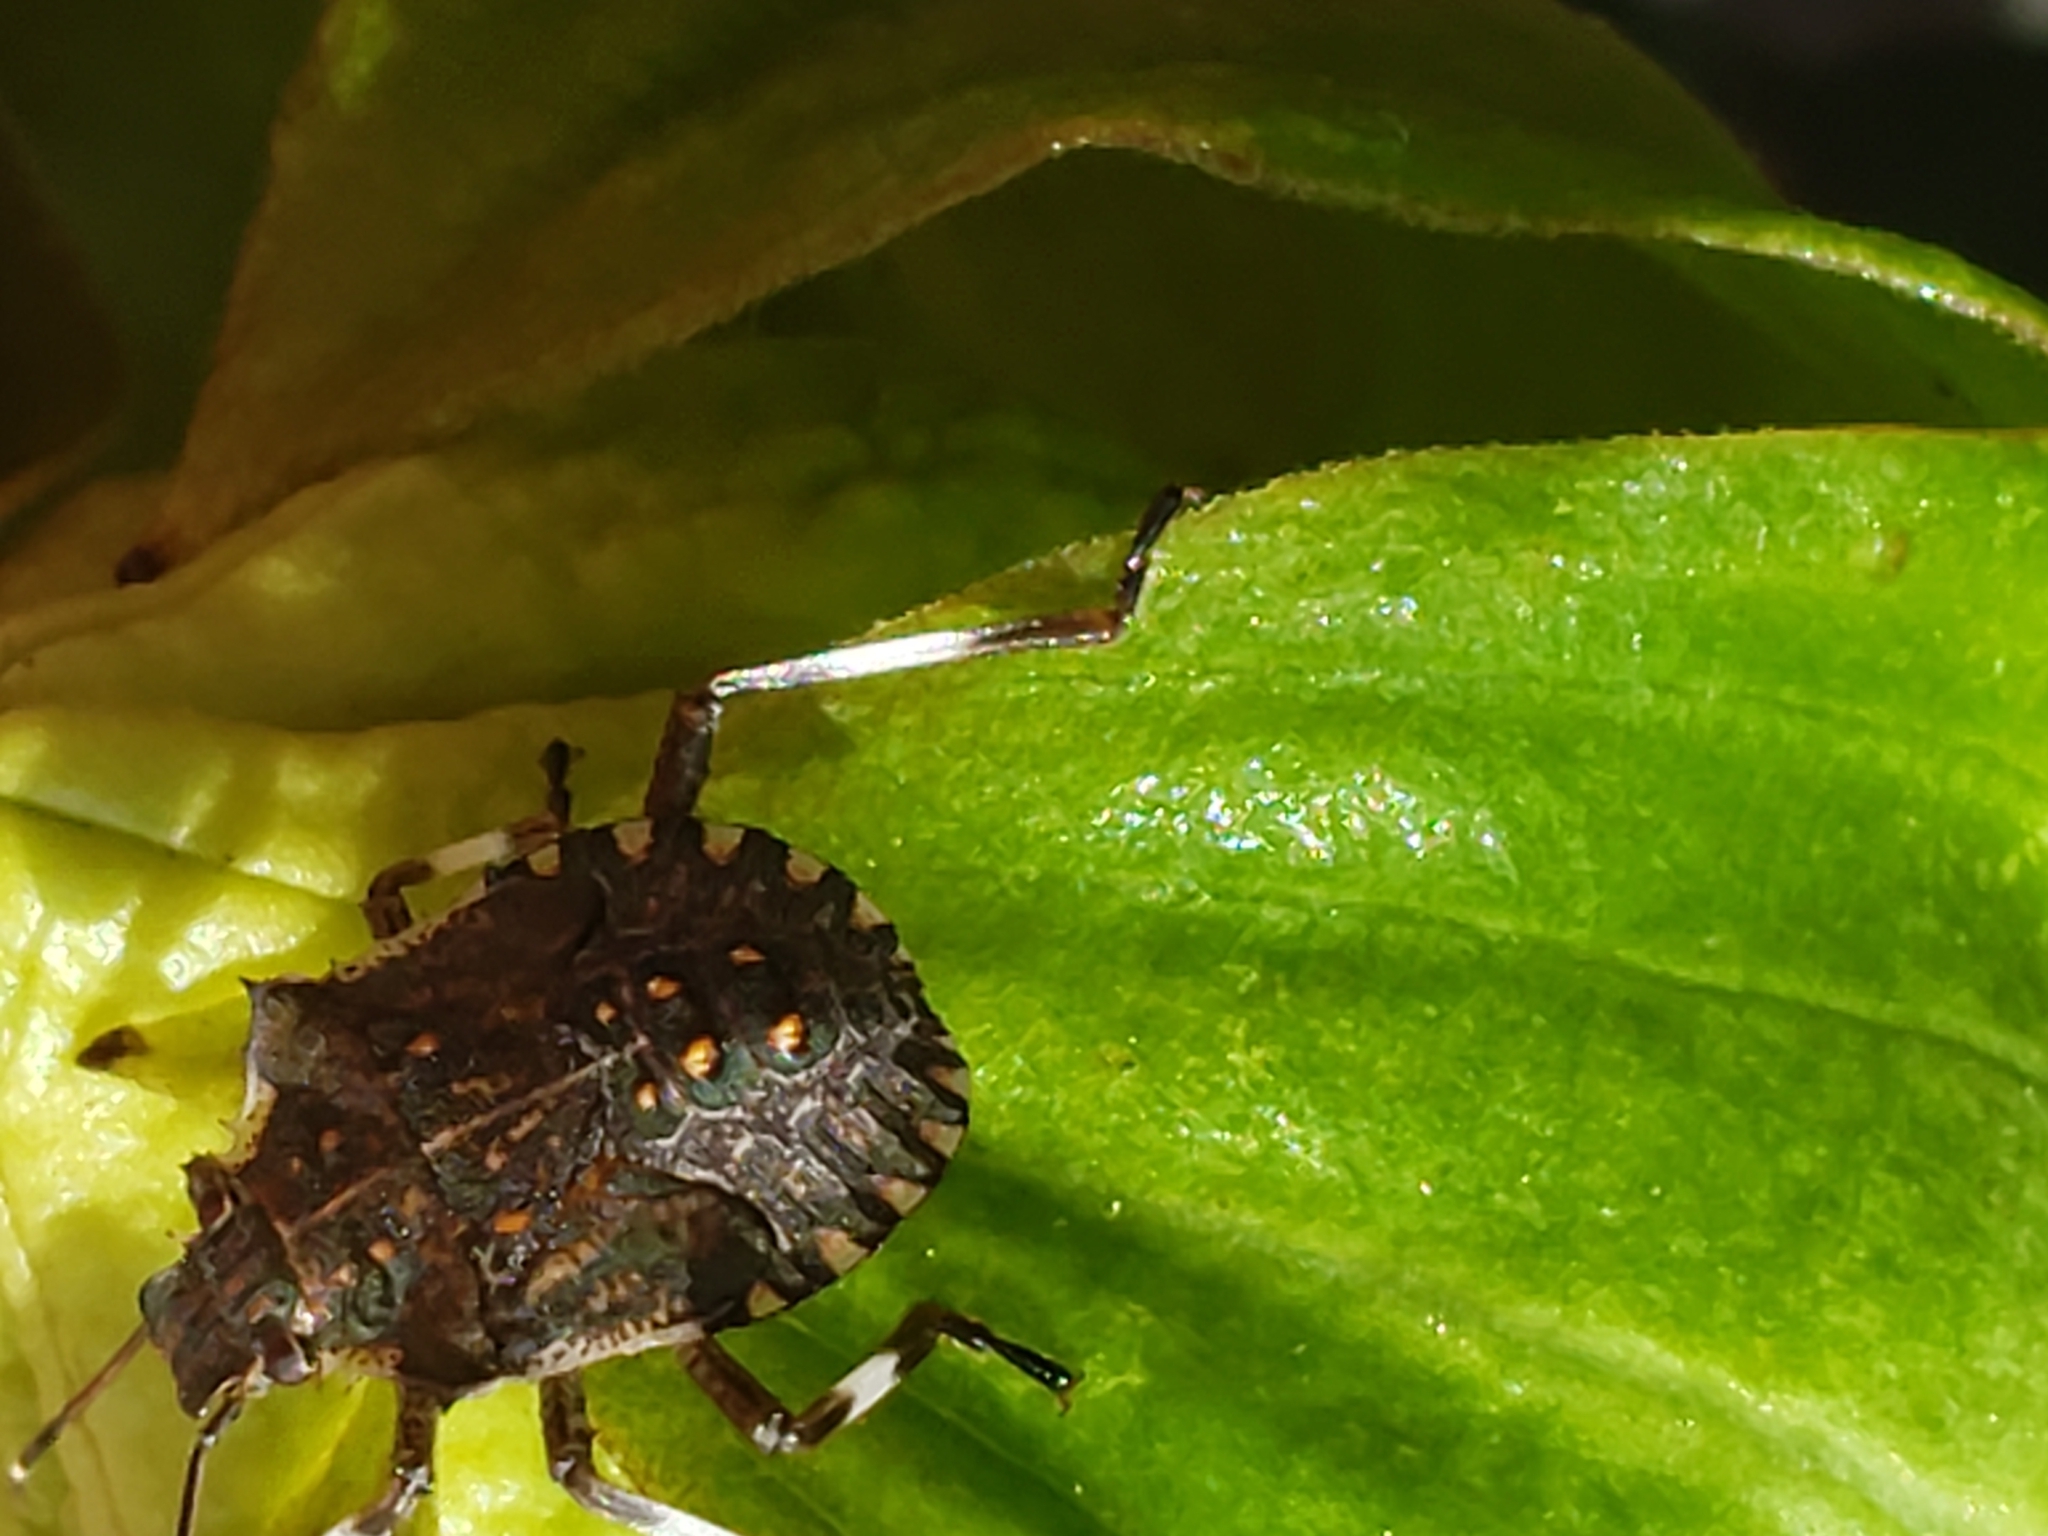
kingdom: Animalia
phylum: Arthropoda
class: Insecta
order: Hemiptera
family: Pentatomidae
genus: Halyomorpha
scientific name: Halyomorpha halys
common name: Brown marmorated stink bug
